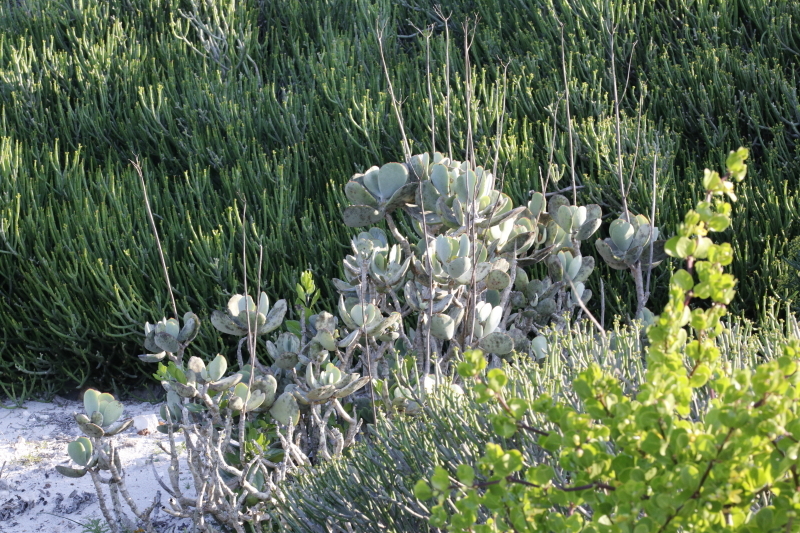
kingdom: Plantae
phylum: Tracheophyta
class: Magnoliopsida
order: Saxifragales
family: Crassulaceae
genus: Cotyledon
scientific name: Cotyledon orbiculata
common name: Pig's ear
